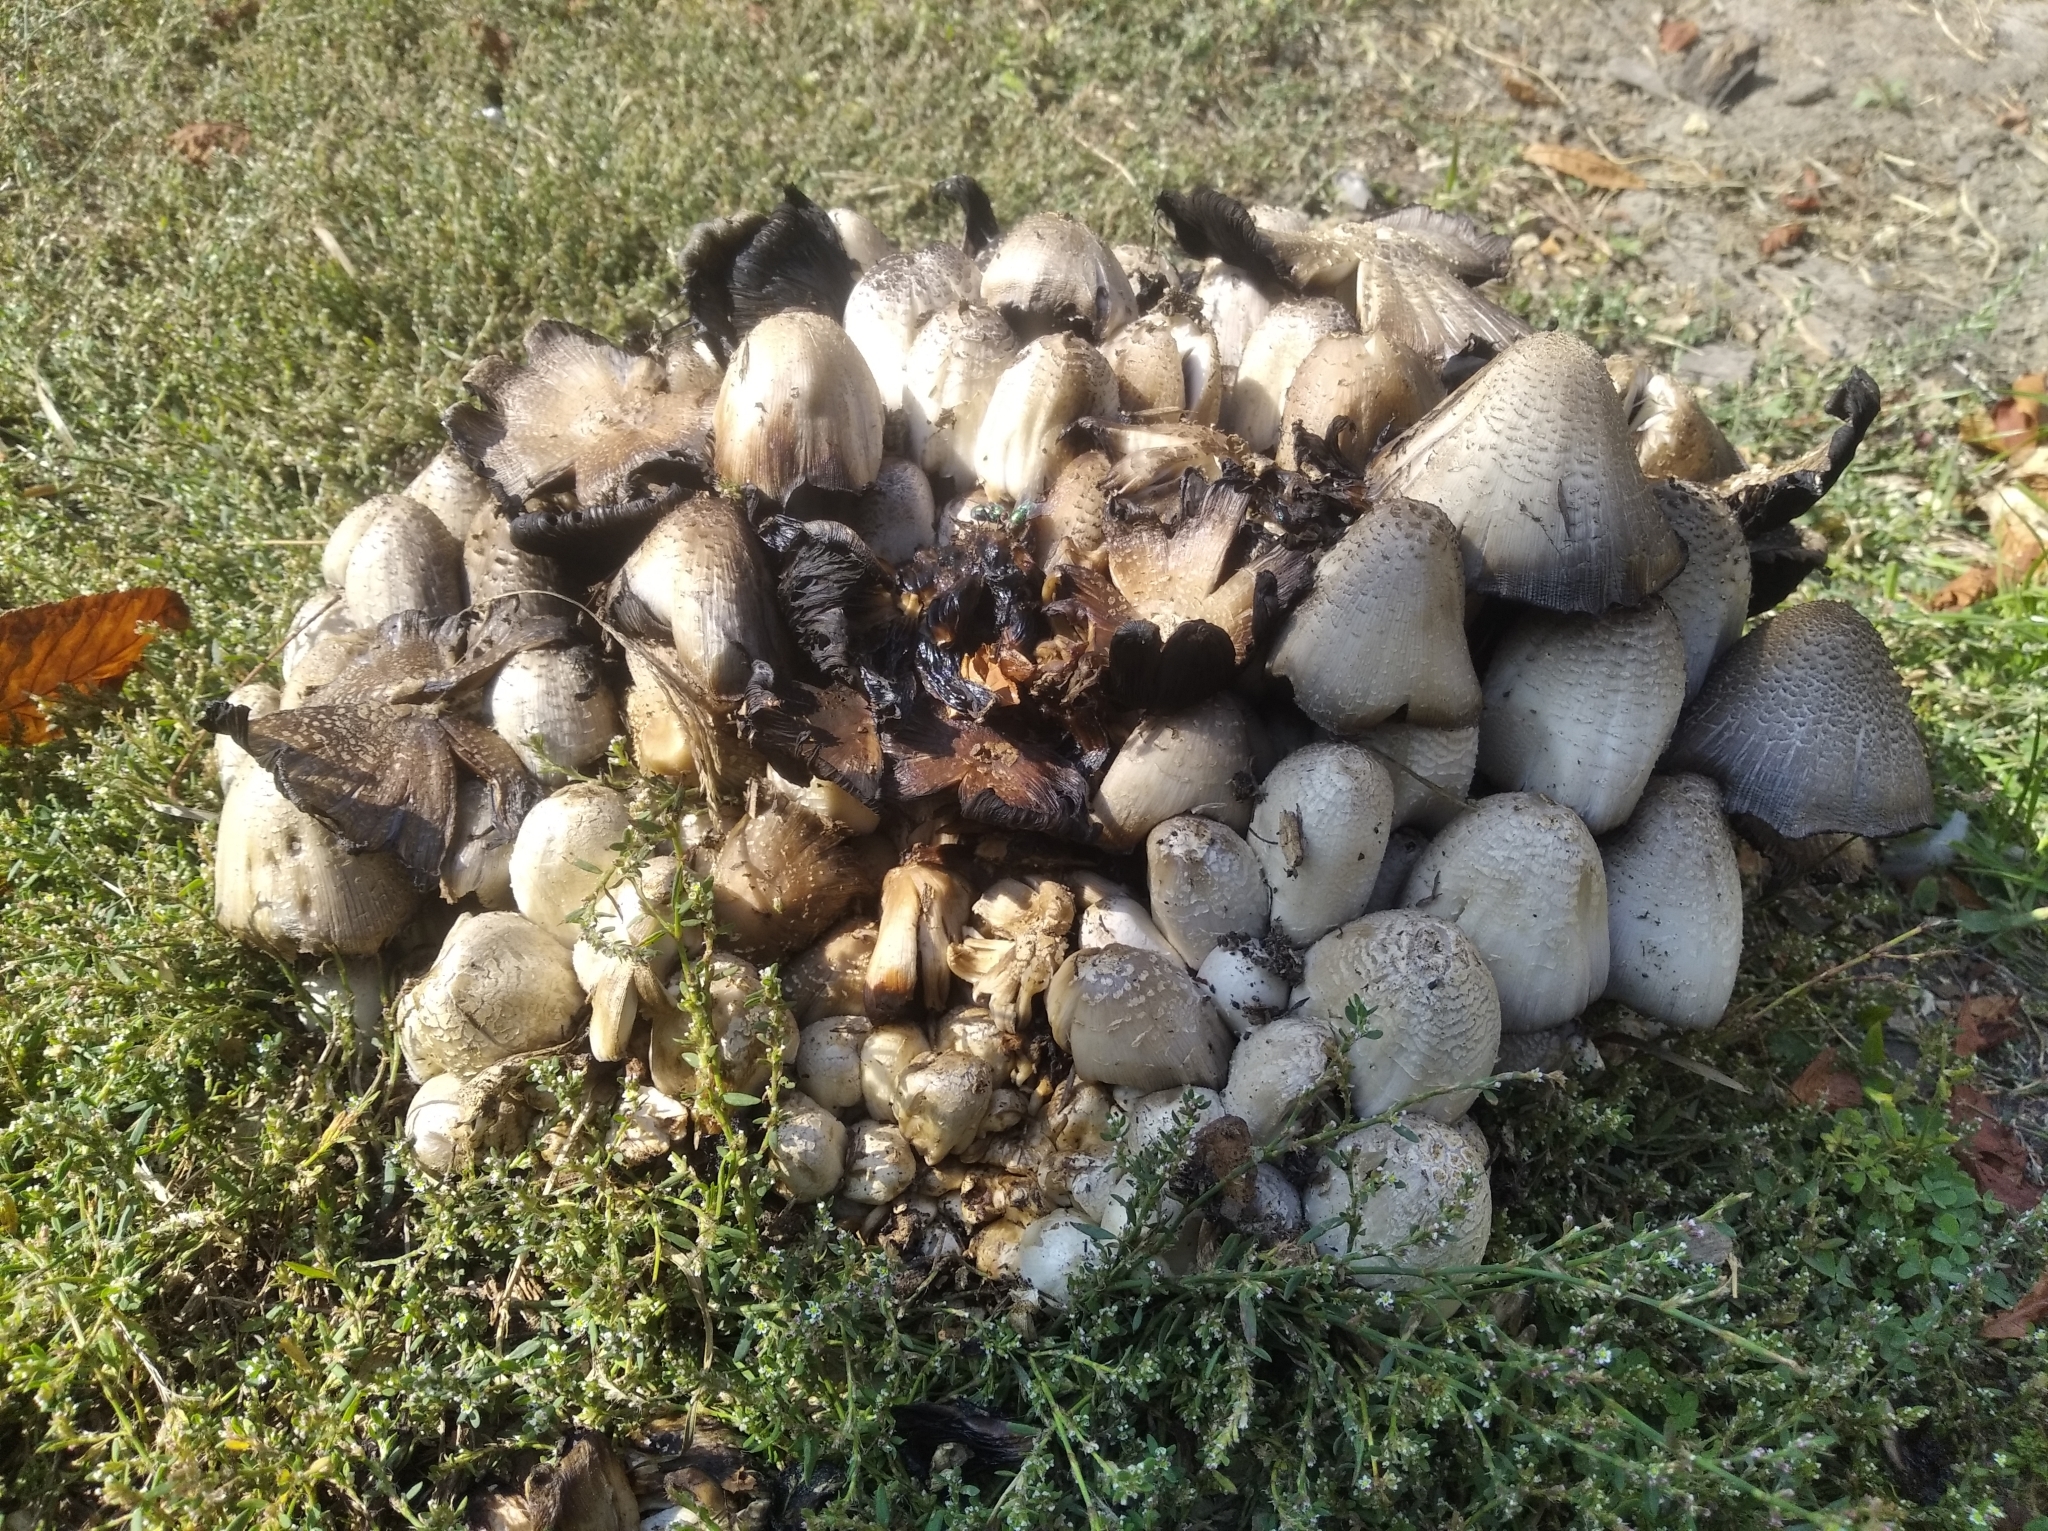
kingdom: Fungi
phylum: Basidiomycota
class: Agaricomycetes
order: Agaricales
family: Psathyrellaceae
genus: Coprinopsis
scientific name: Coprinopsis atramentaria
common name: Common ink-cap
